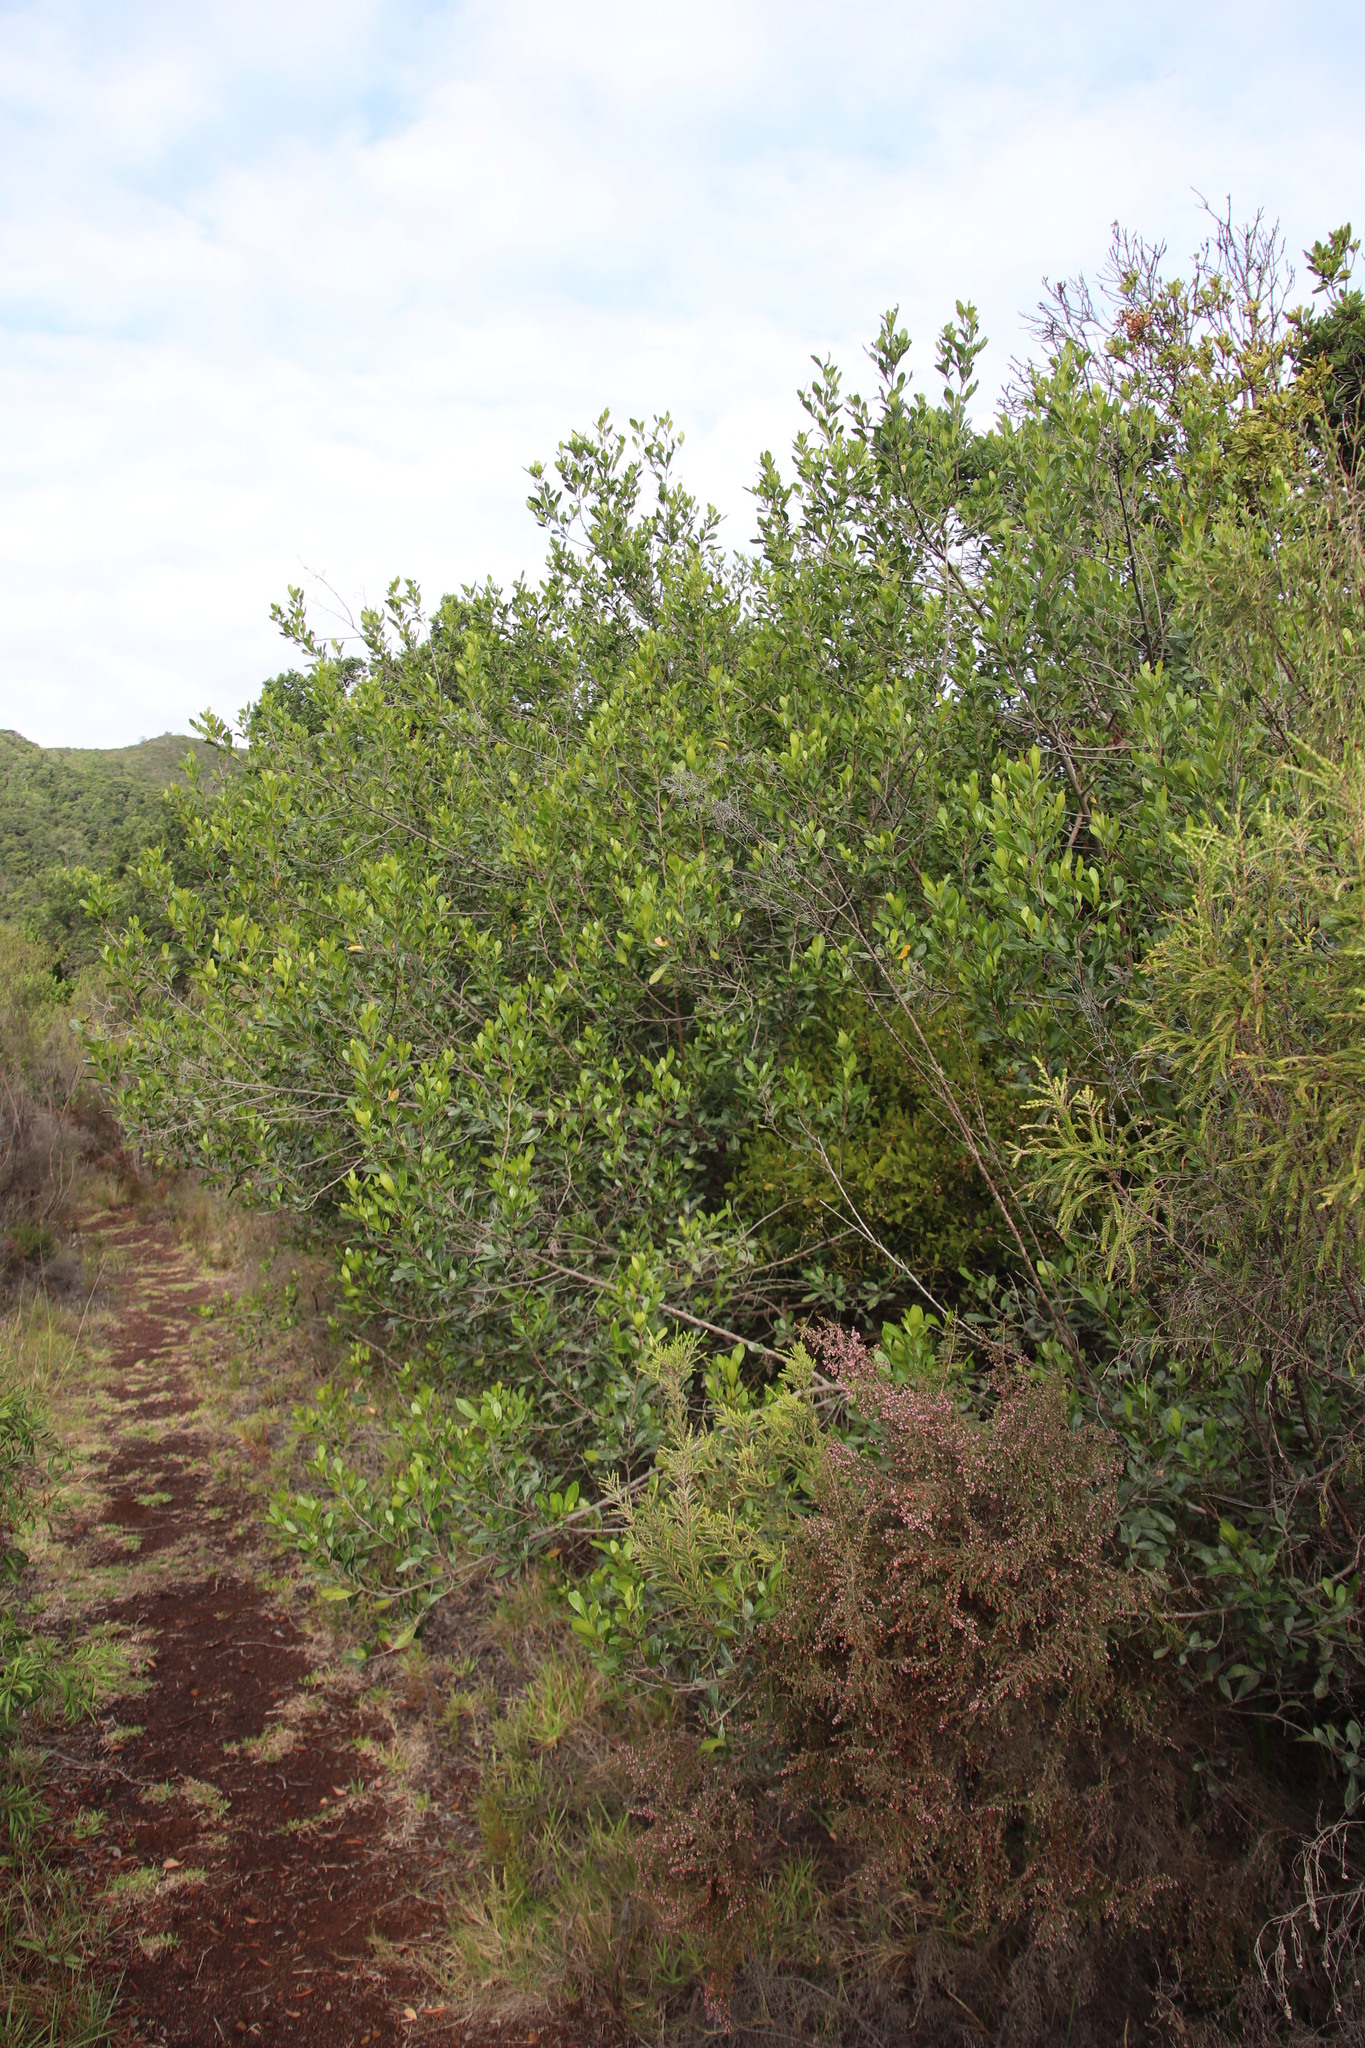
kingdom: Plantae
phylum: Tracheophyta
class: Magnoliopsida
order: Sapindales
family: Anacardiaceae
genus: Searsia
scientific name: Searsia lucida
